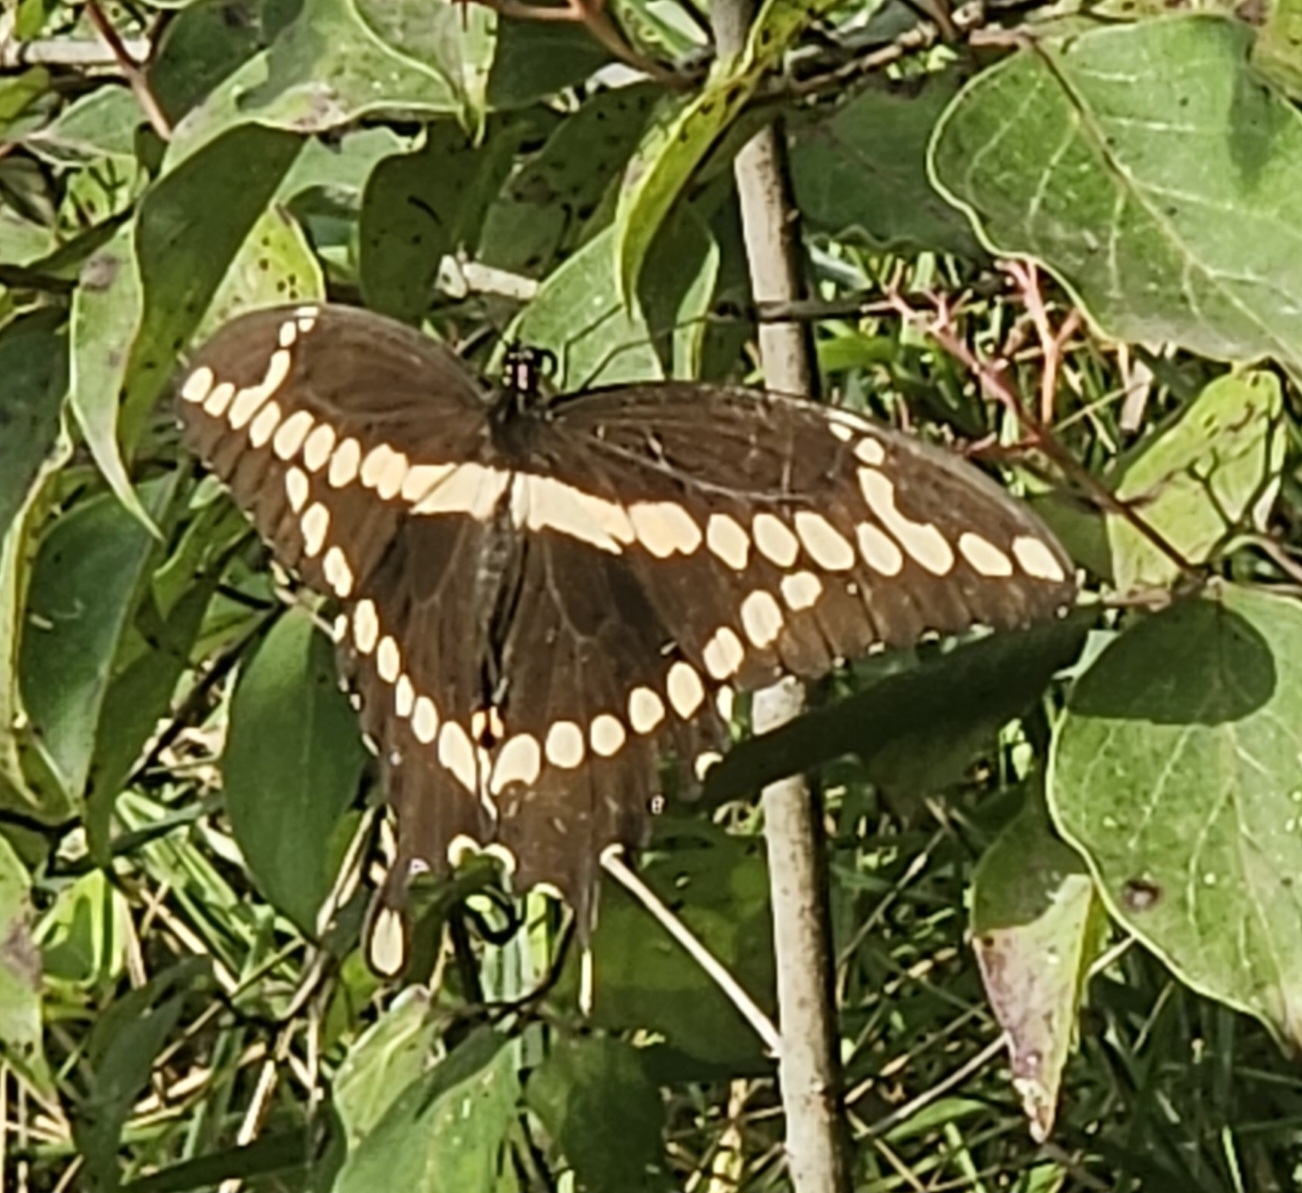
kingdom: Animalia
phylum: Arthropoda
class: Insecta
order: Lepidoptera
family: Papilionidae
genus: Papilio
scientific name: Papilio cresphontes
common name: Giant swallowtail
